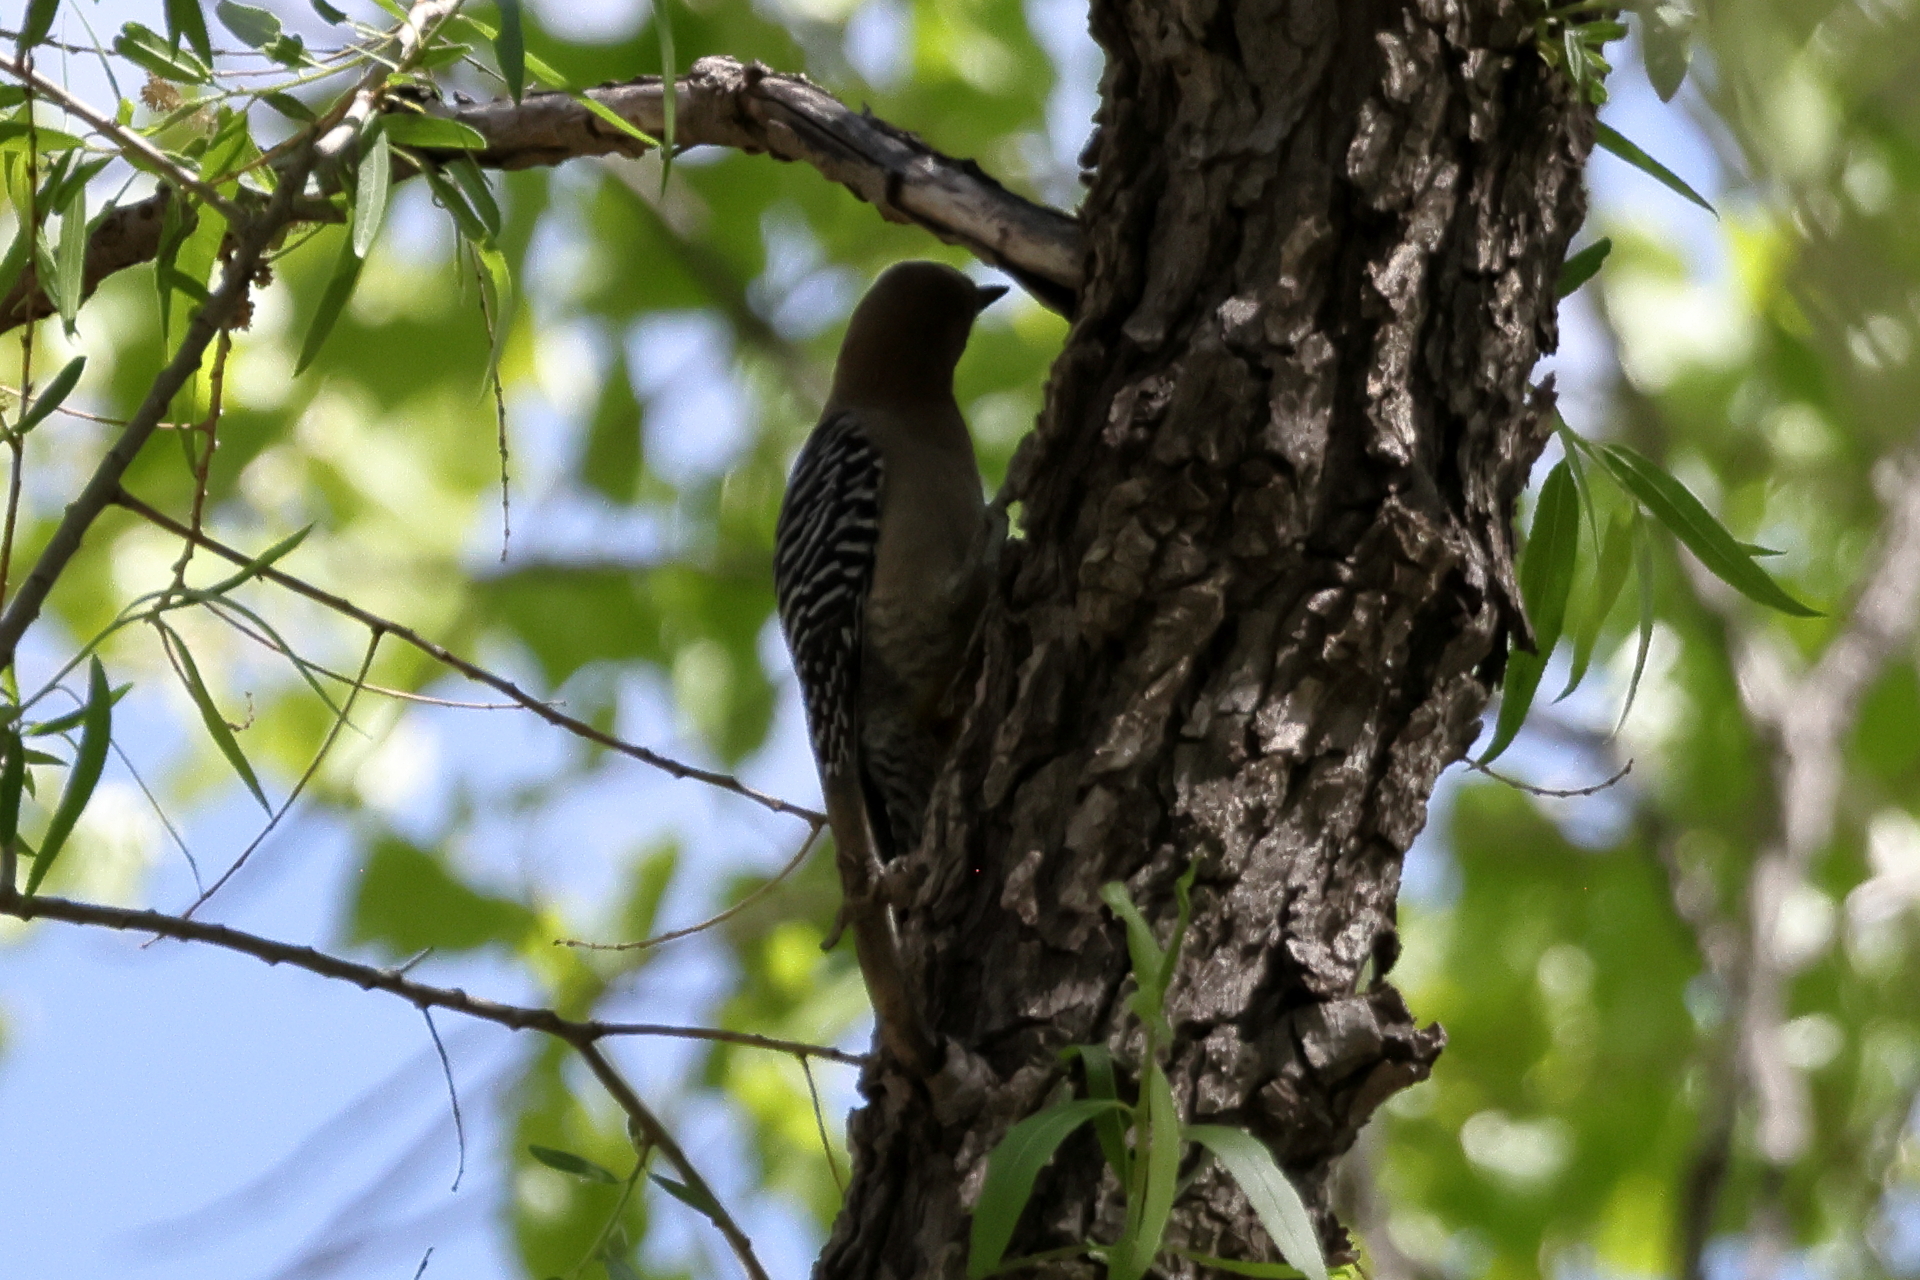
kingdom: Animalia
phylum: Chordata
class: Aves
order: Piciformes
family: Picidae
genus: Melanerpes
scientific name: Melanerpes uropygialis
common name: Gila woodpecker
